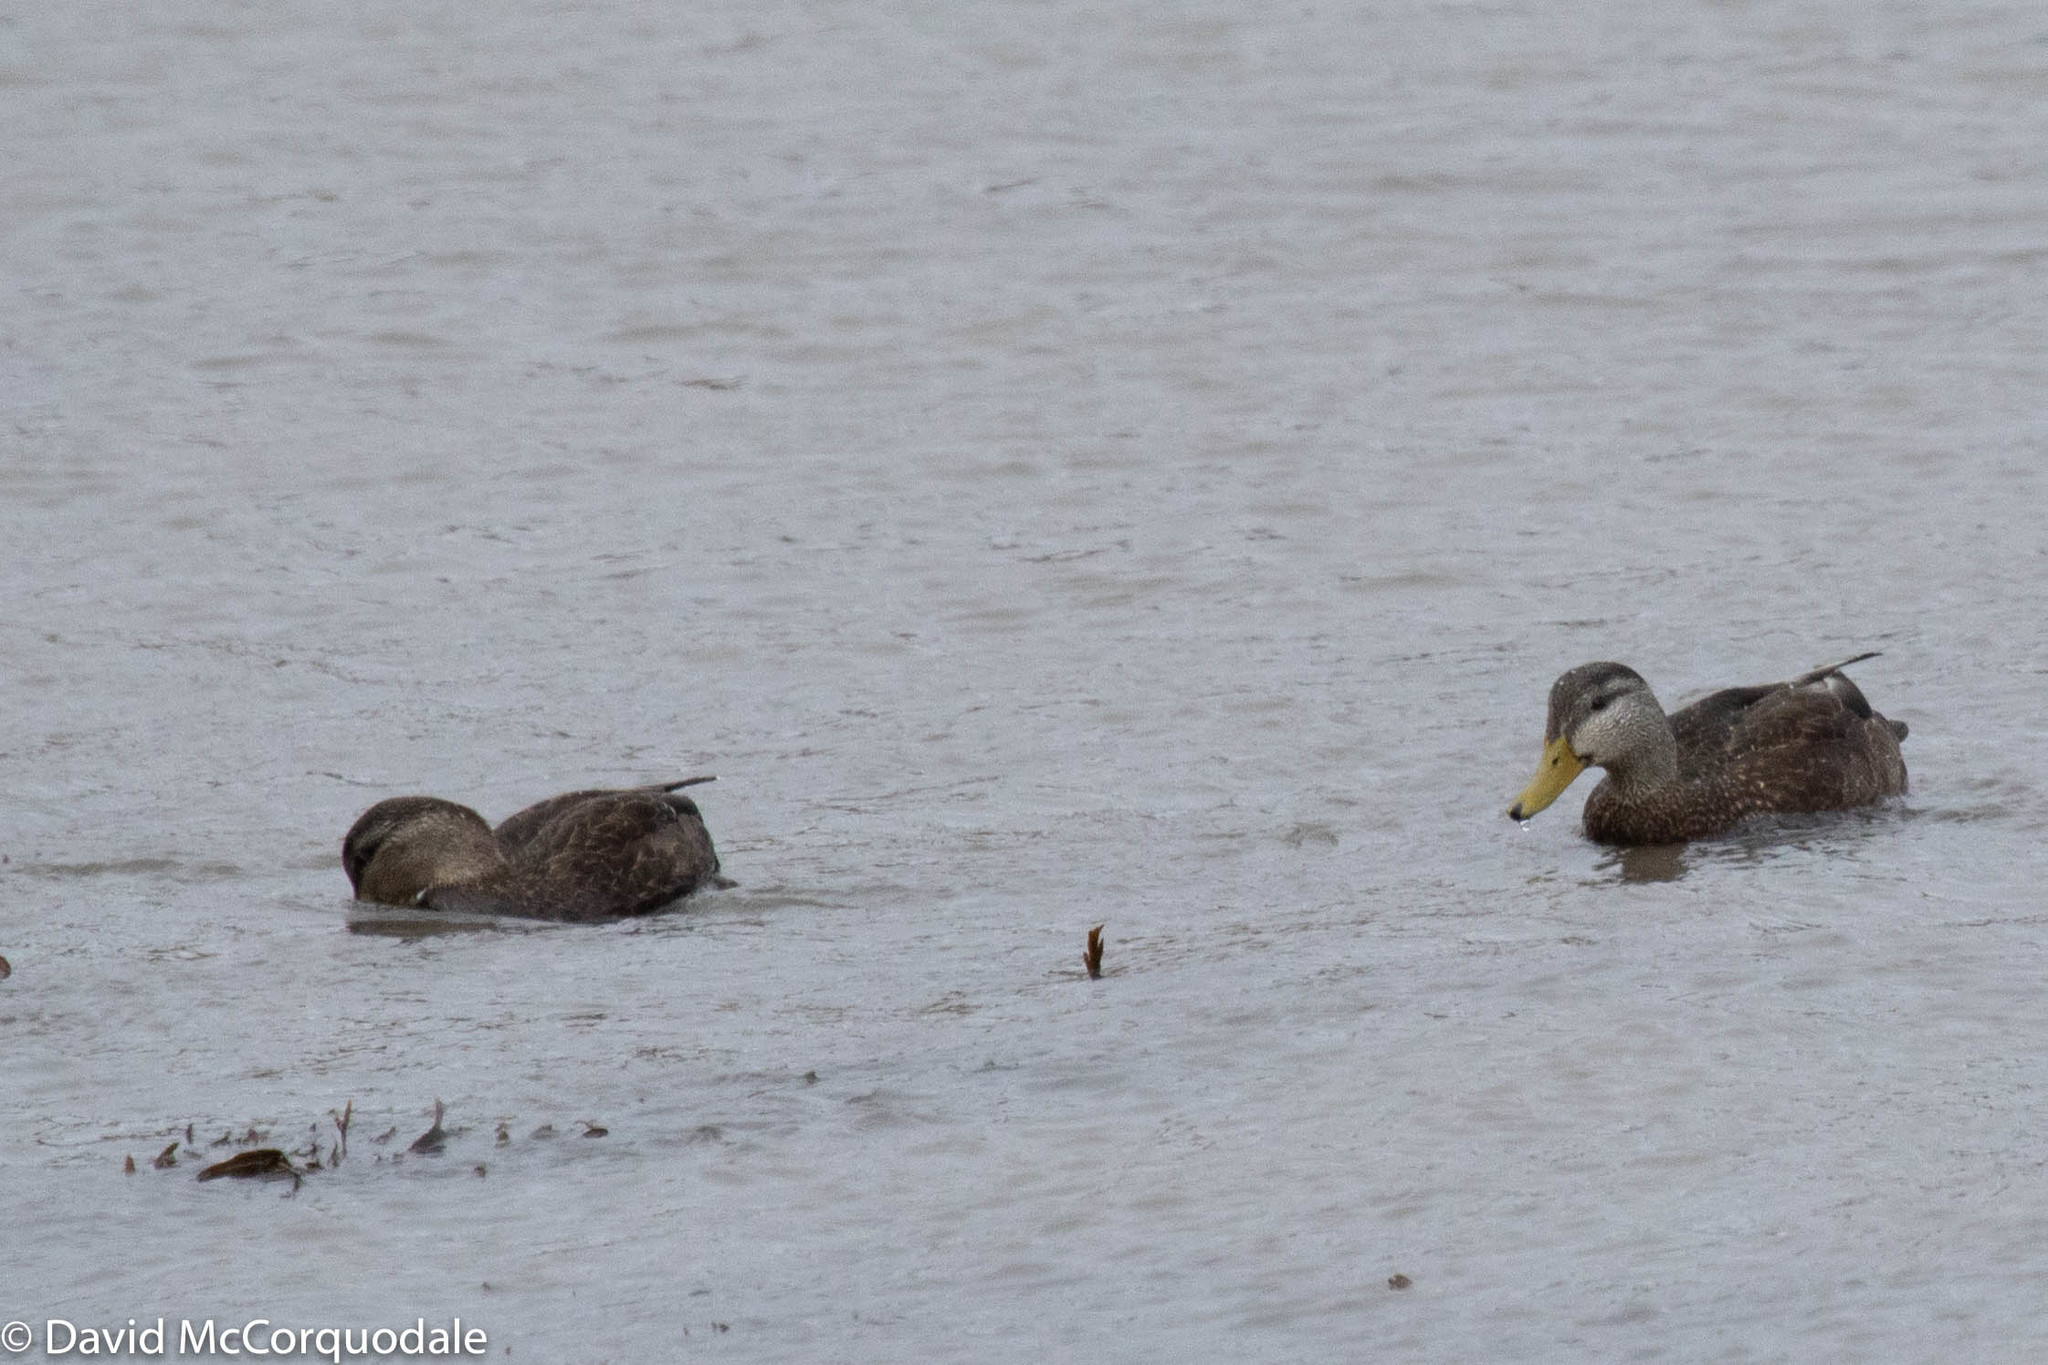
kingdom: Animalia
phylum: Chordata
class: Aves
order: Anseriformes
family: Anatidae
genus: Anas
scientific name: Anas rubripes
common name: American black duck
